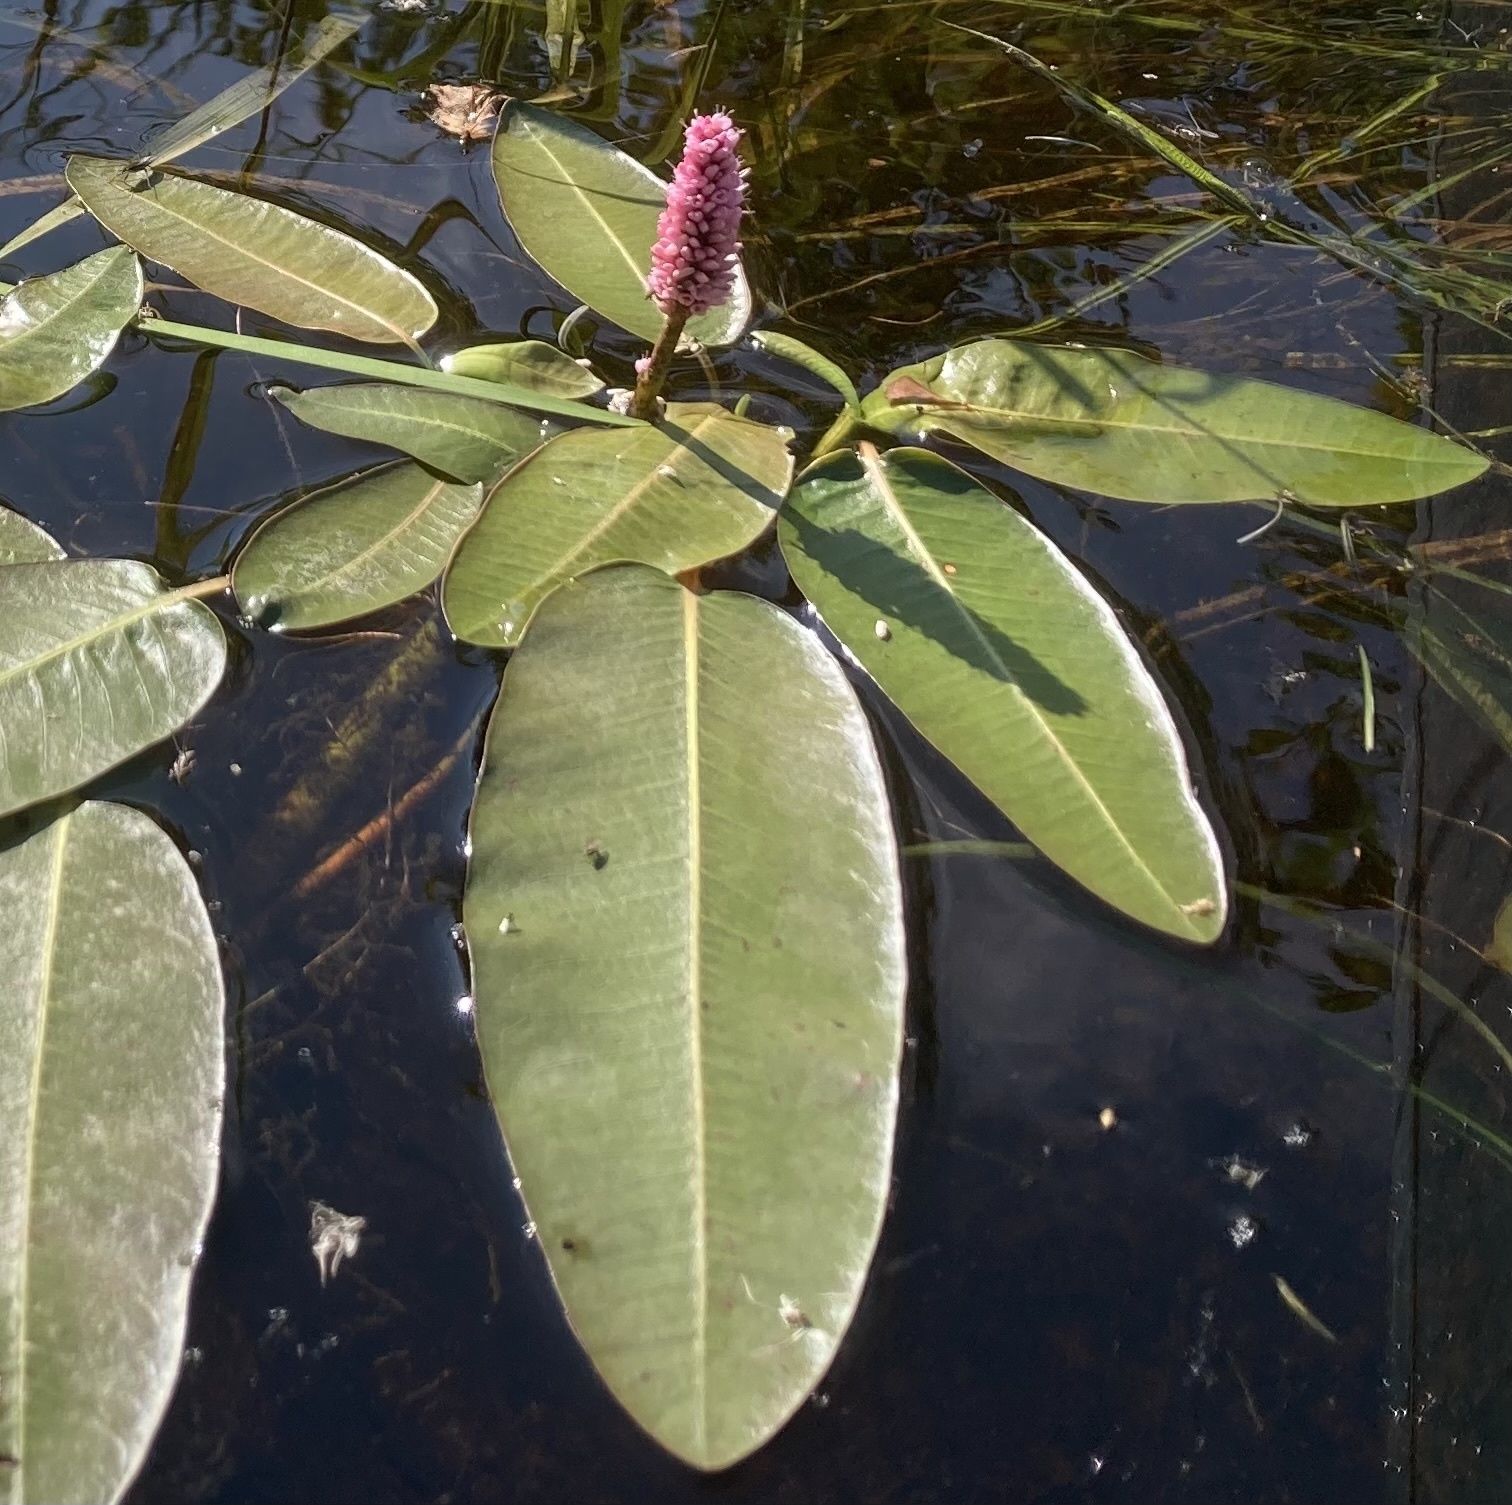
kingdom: Plantae
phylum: Tracheophyta
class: Magnoliopsida
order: Caryophyllales
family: Polygonaceae
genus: Persicaria
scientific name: Persicaria amphibia
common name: Amphibious bistort
